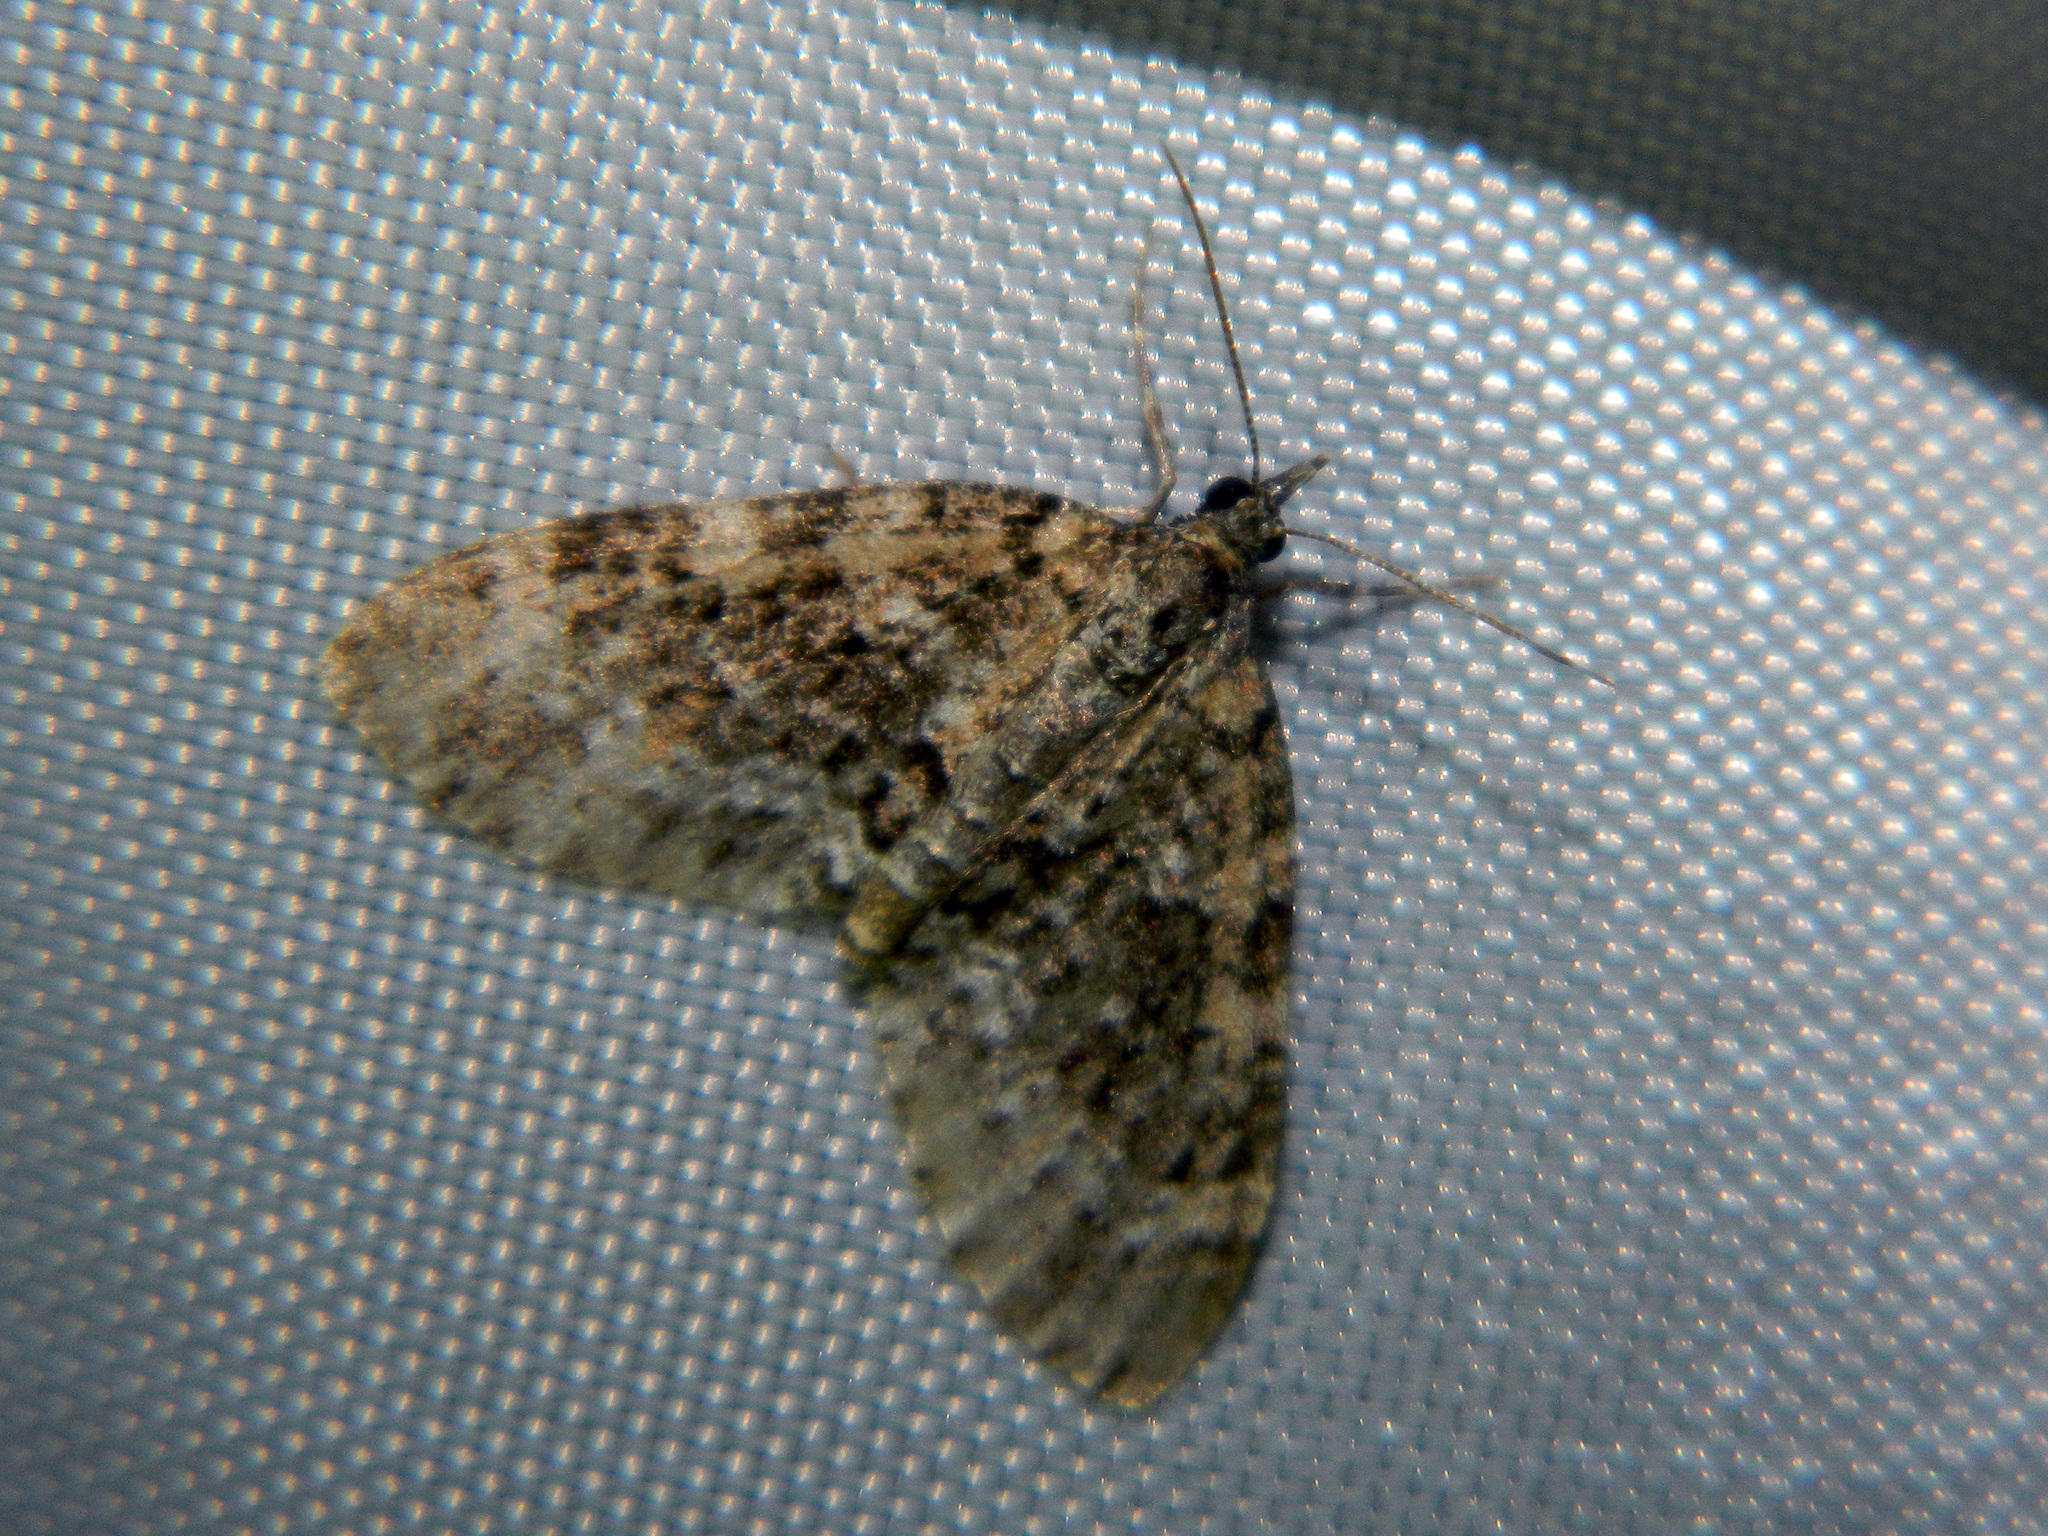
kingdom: Animalia
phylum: Arthropoda
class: Insecta
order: Lepidoptera
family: Geometridae
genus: Acasis
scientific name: Acasis viridata
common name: Olive-and-black carpet moth
